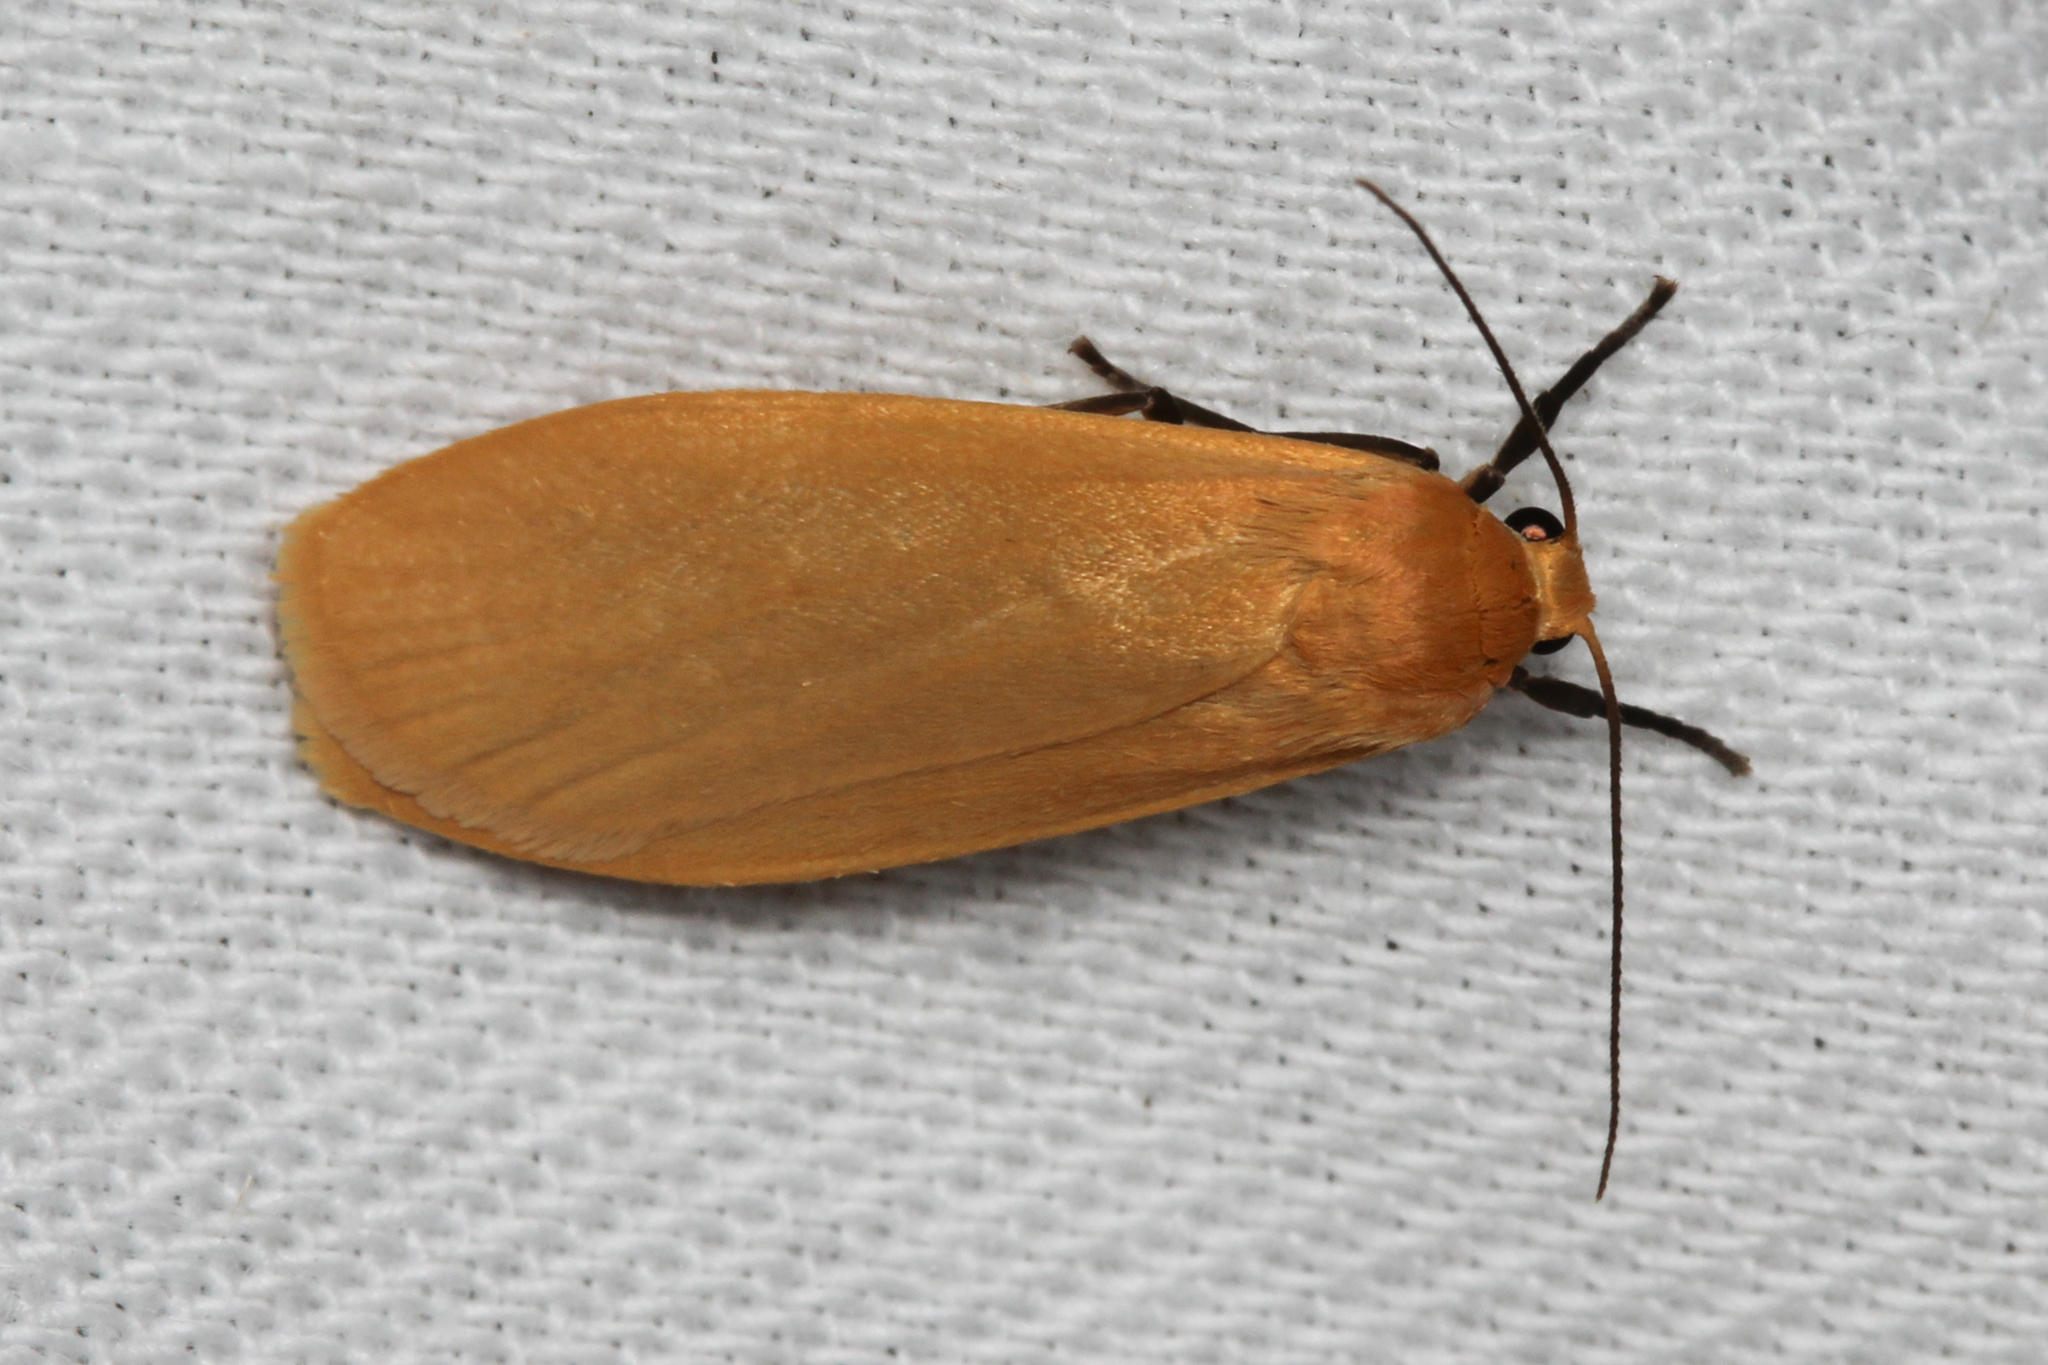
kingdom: Animalia
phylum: Arthropoda
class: Insecta
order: Lepidoptera
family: Erebidae
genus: Wittia
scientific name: Wittia sororcula
